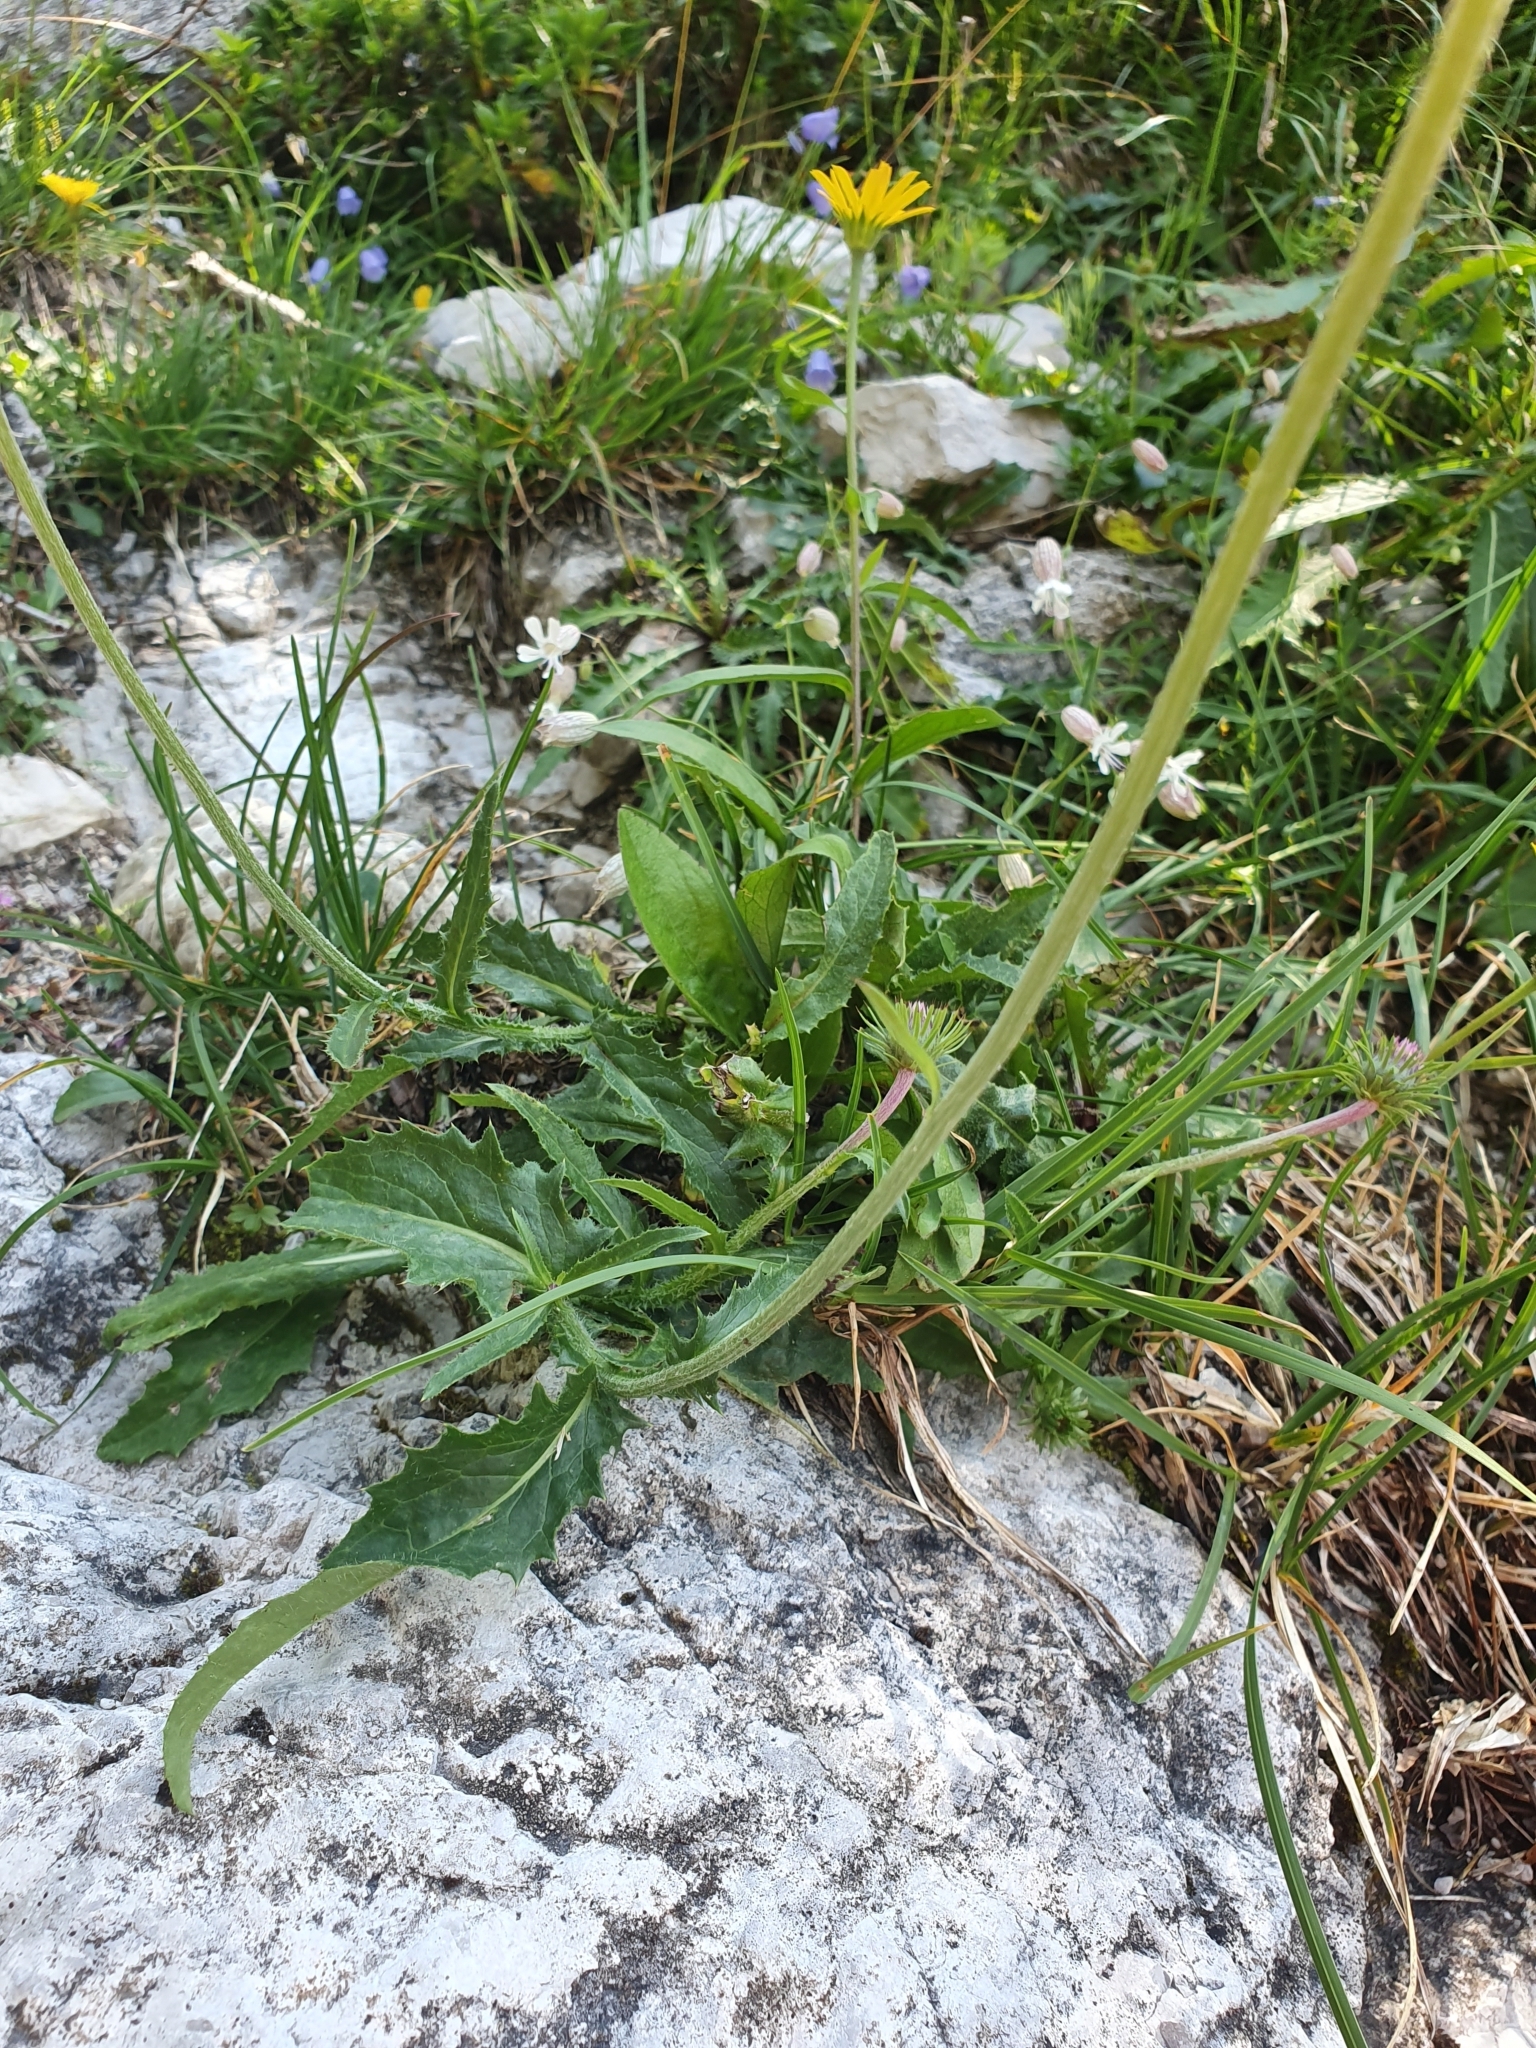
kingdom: Plantae
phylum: Tracheophyta
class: Magnoliopsida
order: Asterales
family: Asteraceae
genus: Carduus
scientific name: Carduus defloratus
